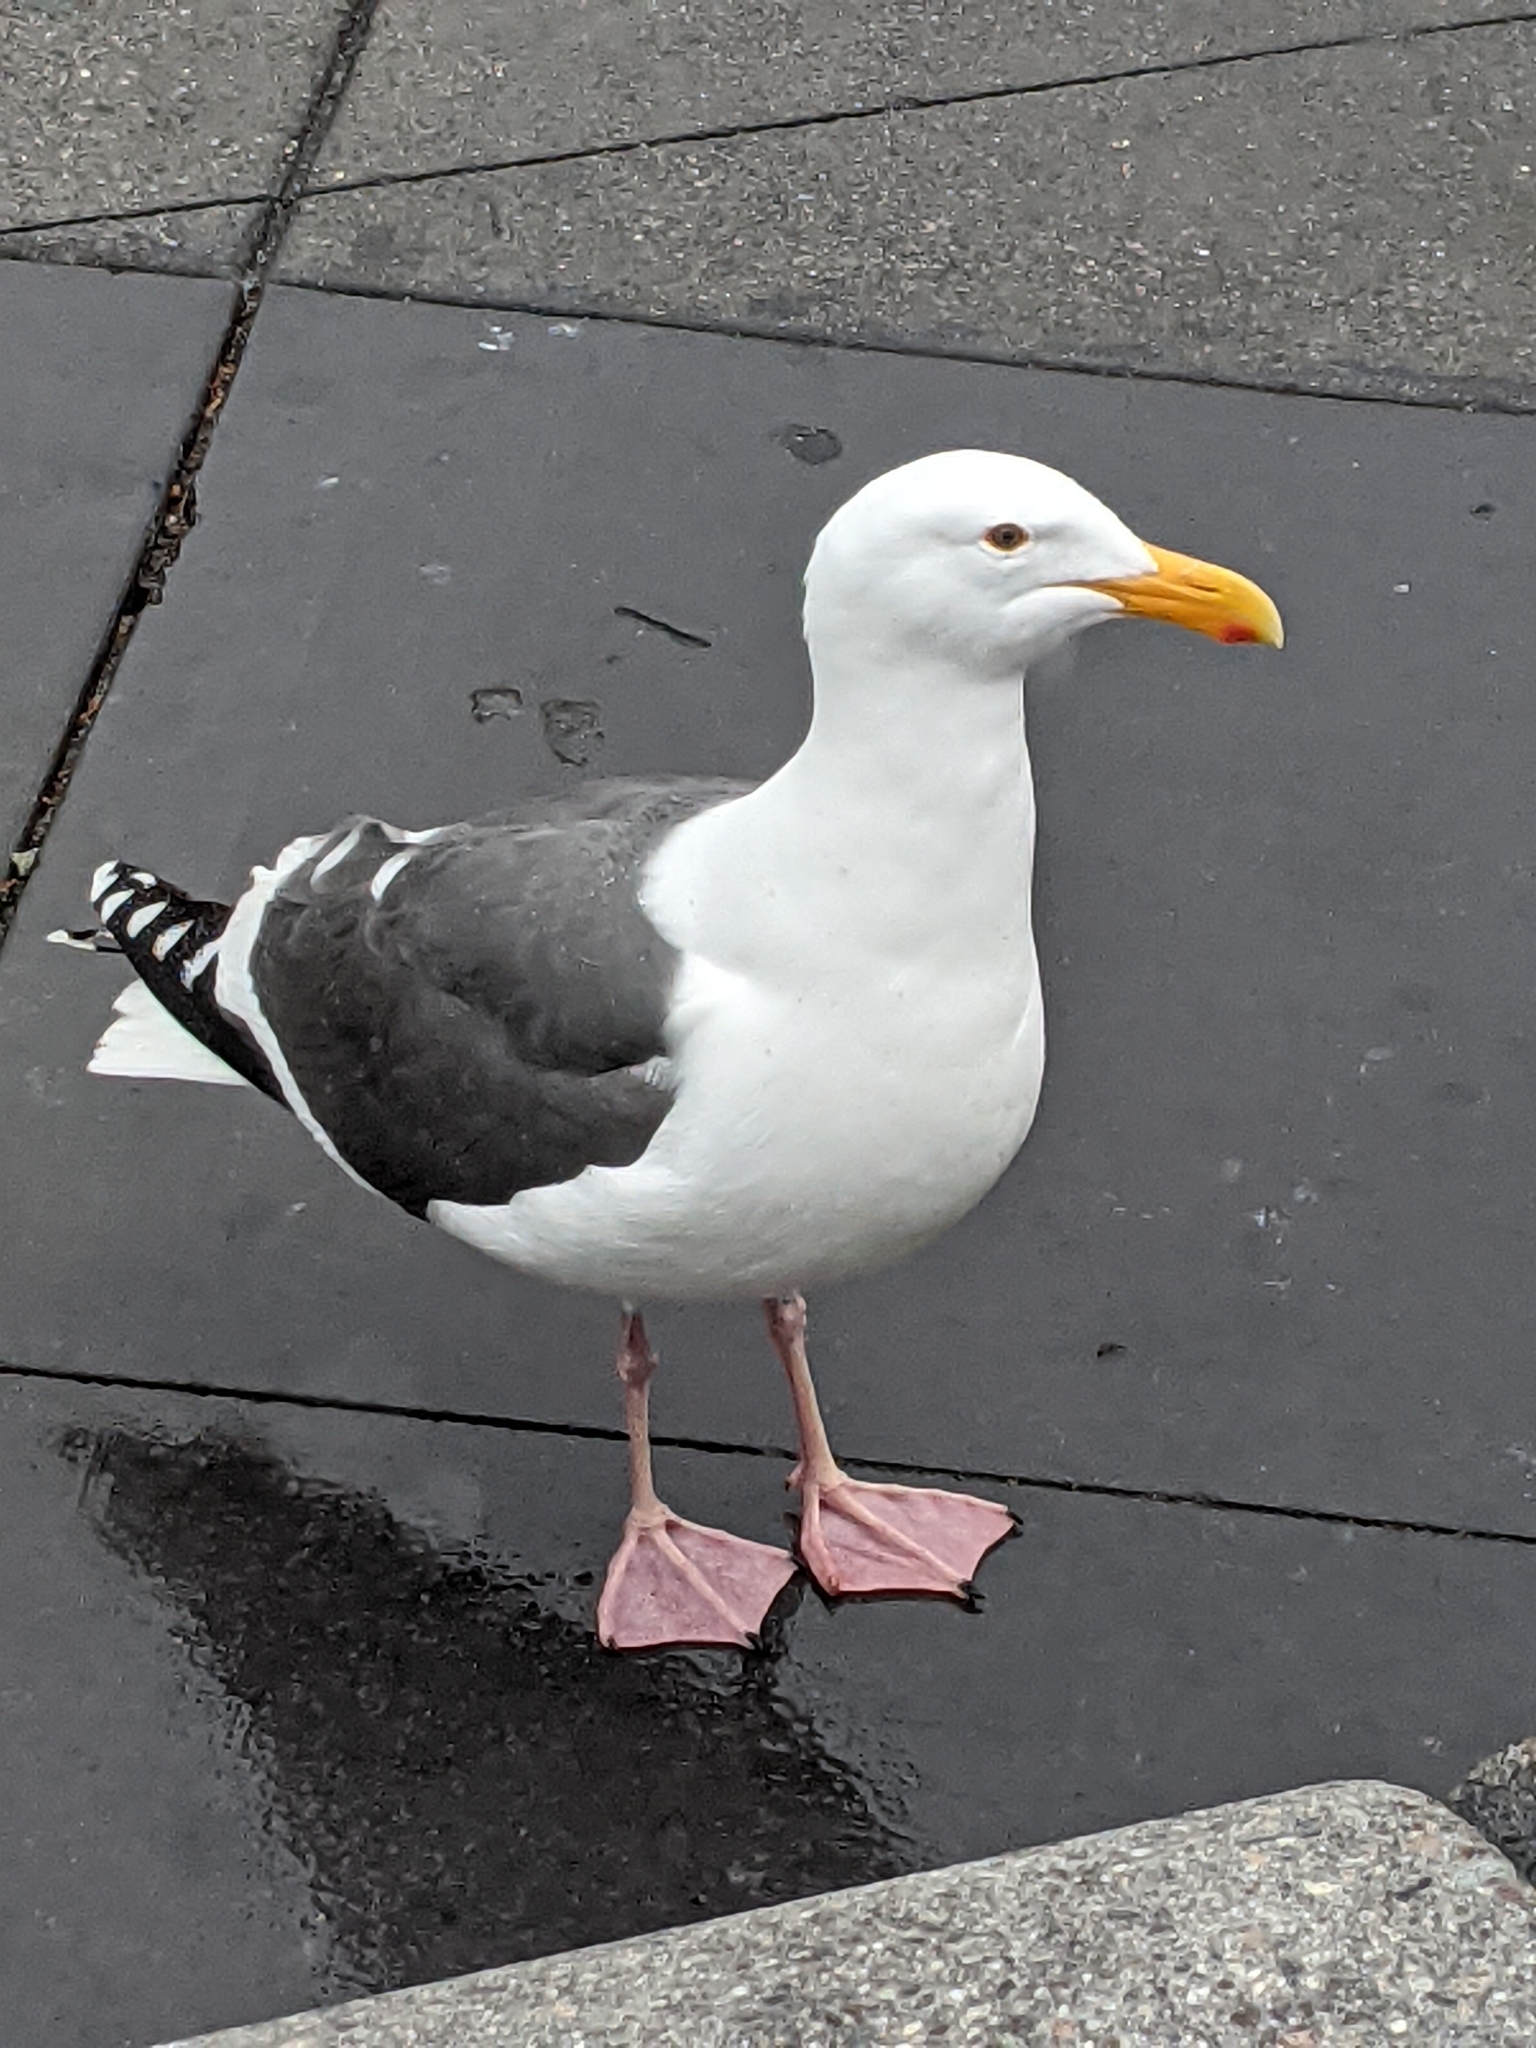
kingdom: Animalia
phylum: Chordata
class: Aves
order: Charadriiformes
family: Laridae
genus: Larus
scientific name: Larus occidentalis
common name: Western gull
